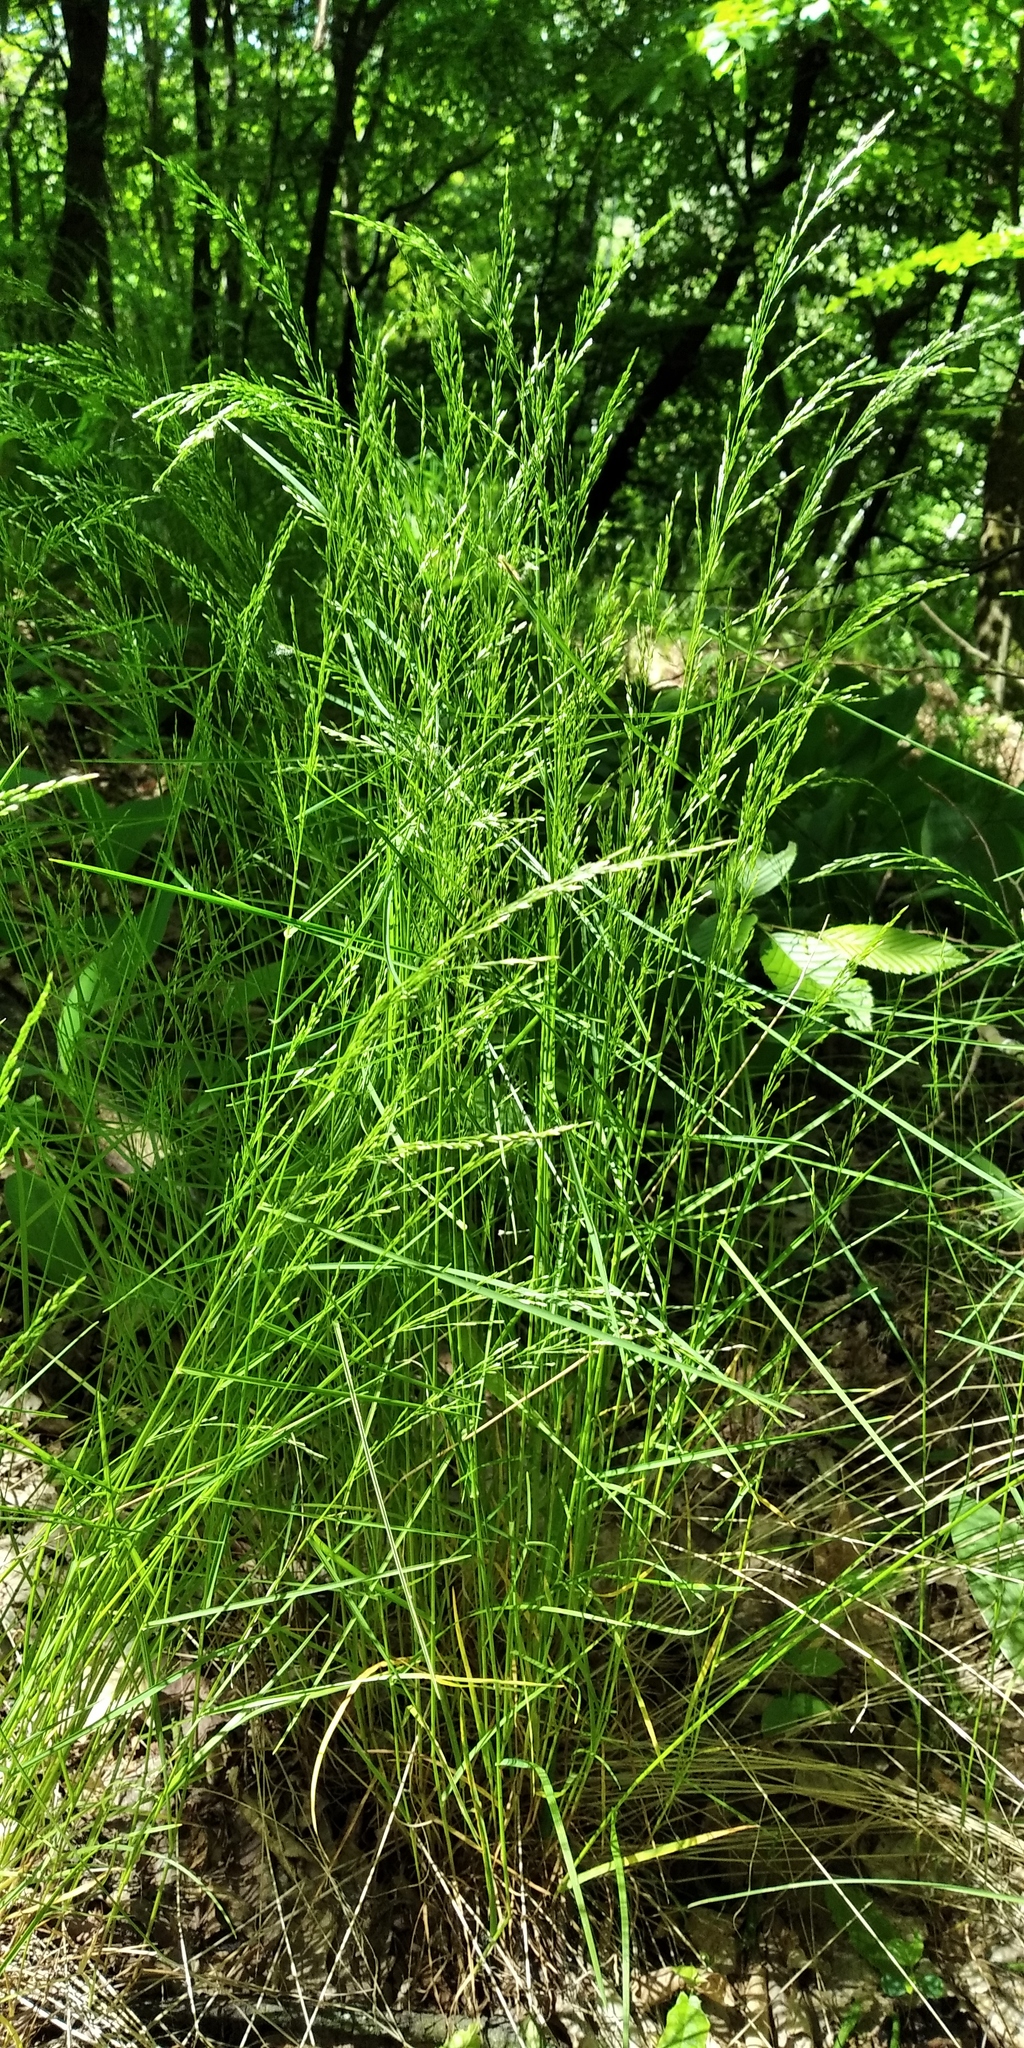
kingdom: Plantae
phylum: Tracheophyta
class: Liliopsida
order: Poales
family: Poaceae
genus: Poa
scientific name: Poa nemoralis
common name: Wood bluegrass
